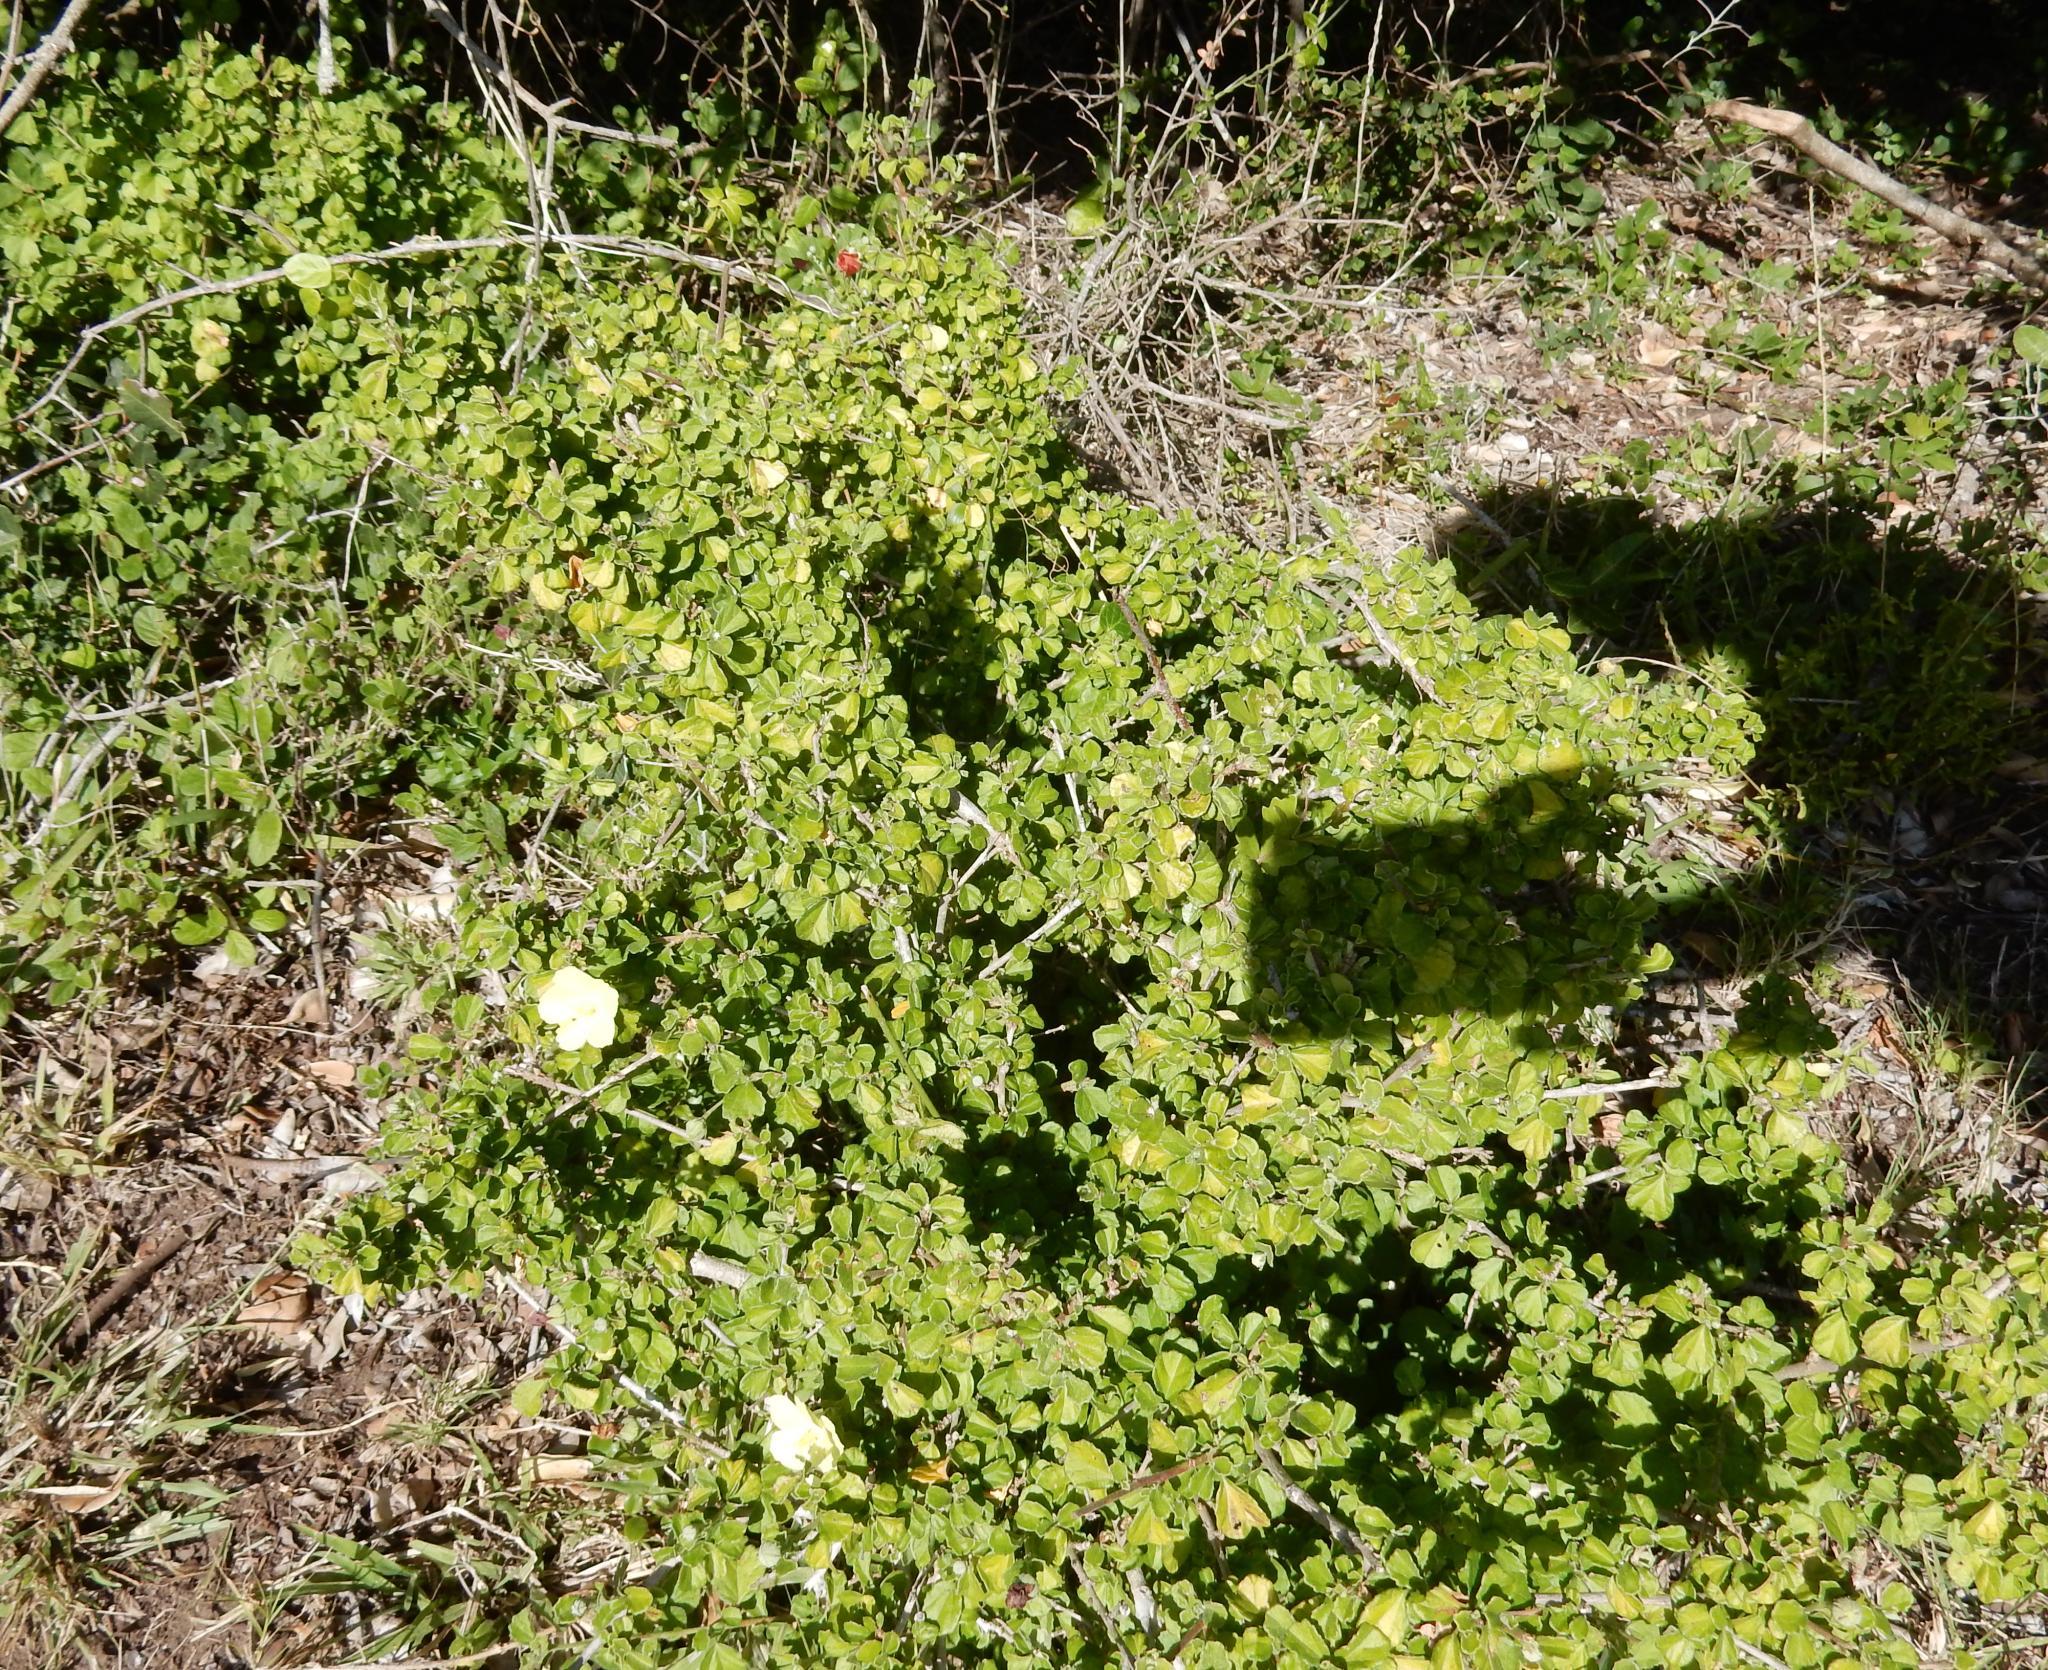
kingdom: Plantae
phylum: Tracheophyta
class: Magnoliopsida
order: Malvales
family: Malvaceae
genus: Pavonia
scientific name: Pavonia praemorsa
